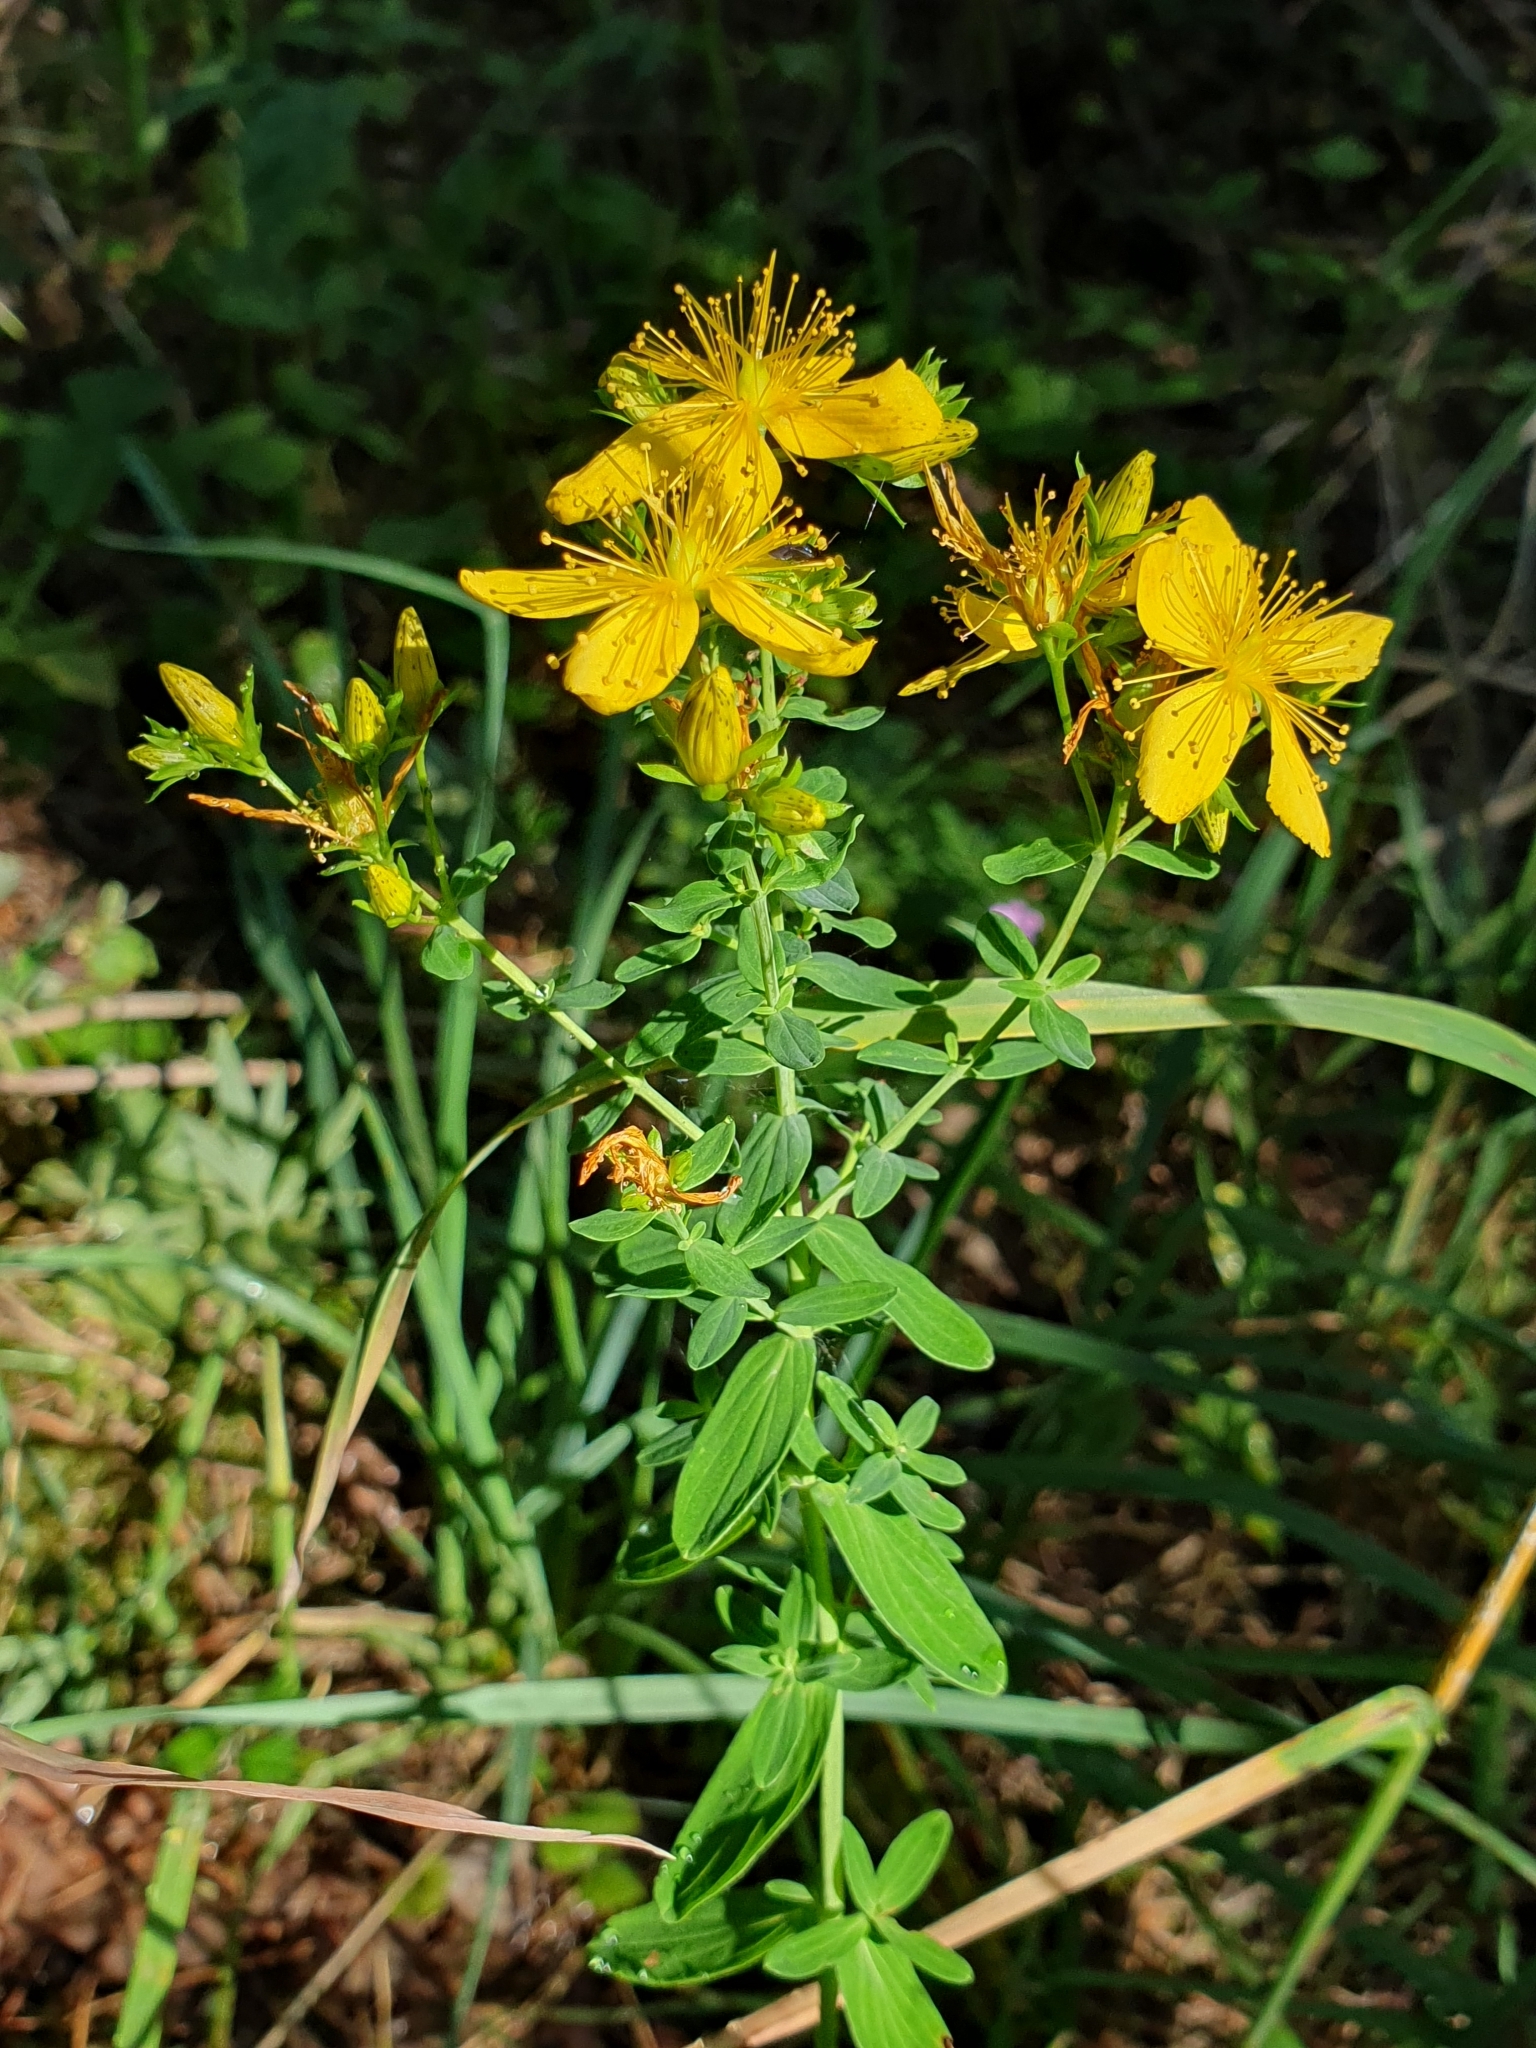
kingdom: Plantae
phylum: Tracheophyta
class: Magnoliopsida
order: Malpighiales
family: Hypericaceae
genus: Hypericum
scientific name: Hypericum perforatum
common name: Common st. johnswort
